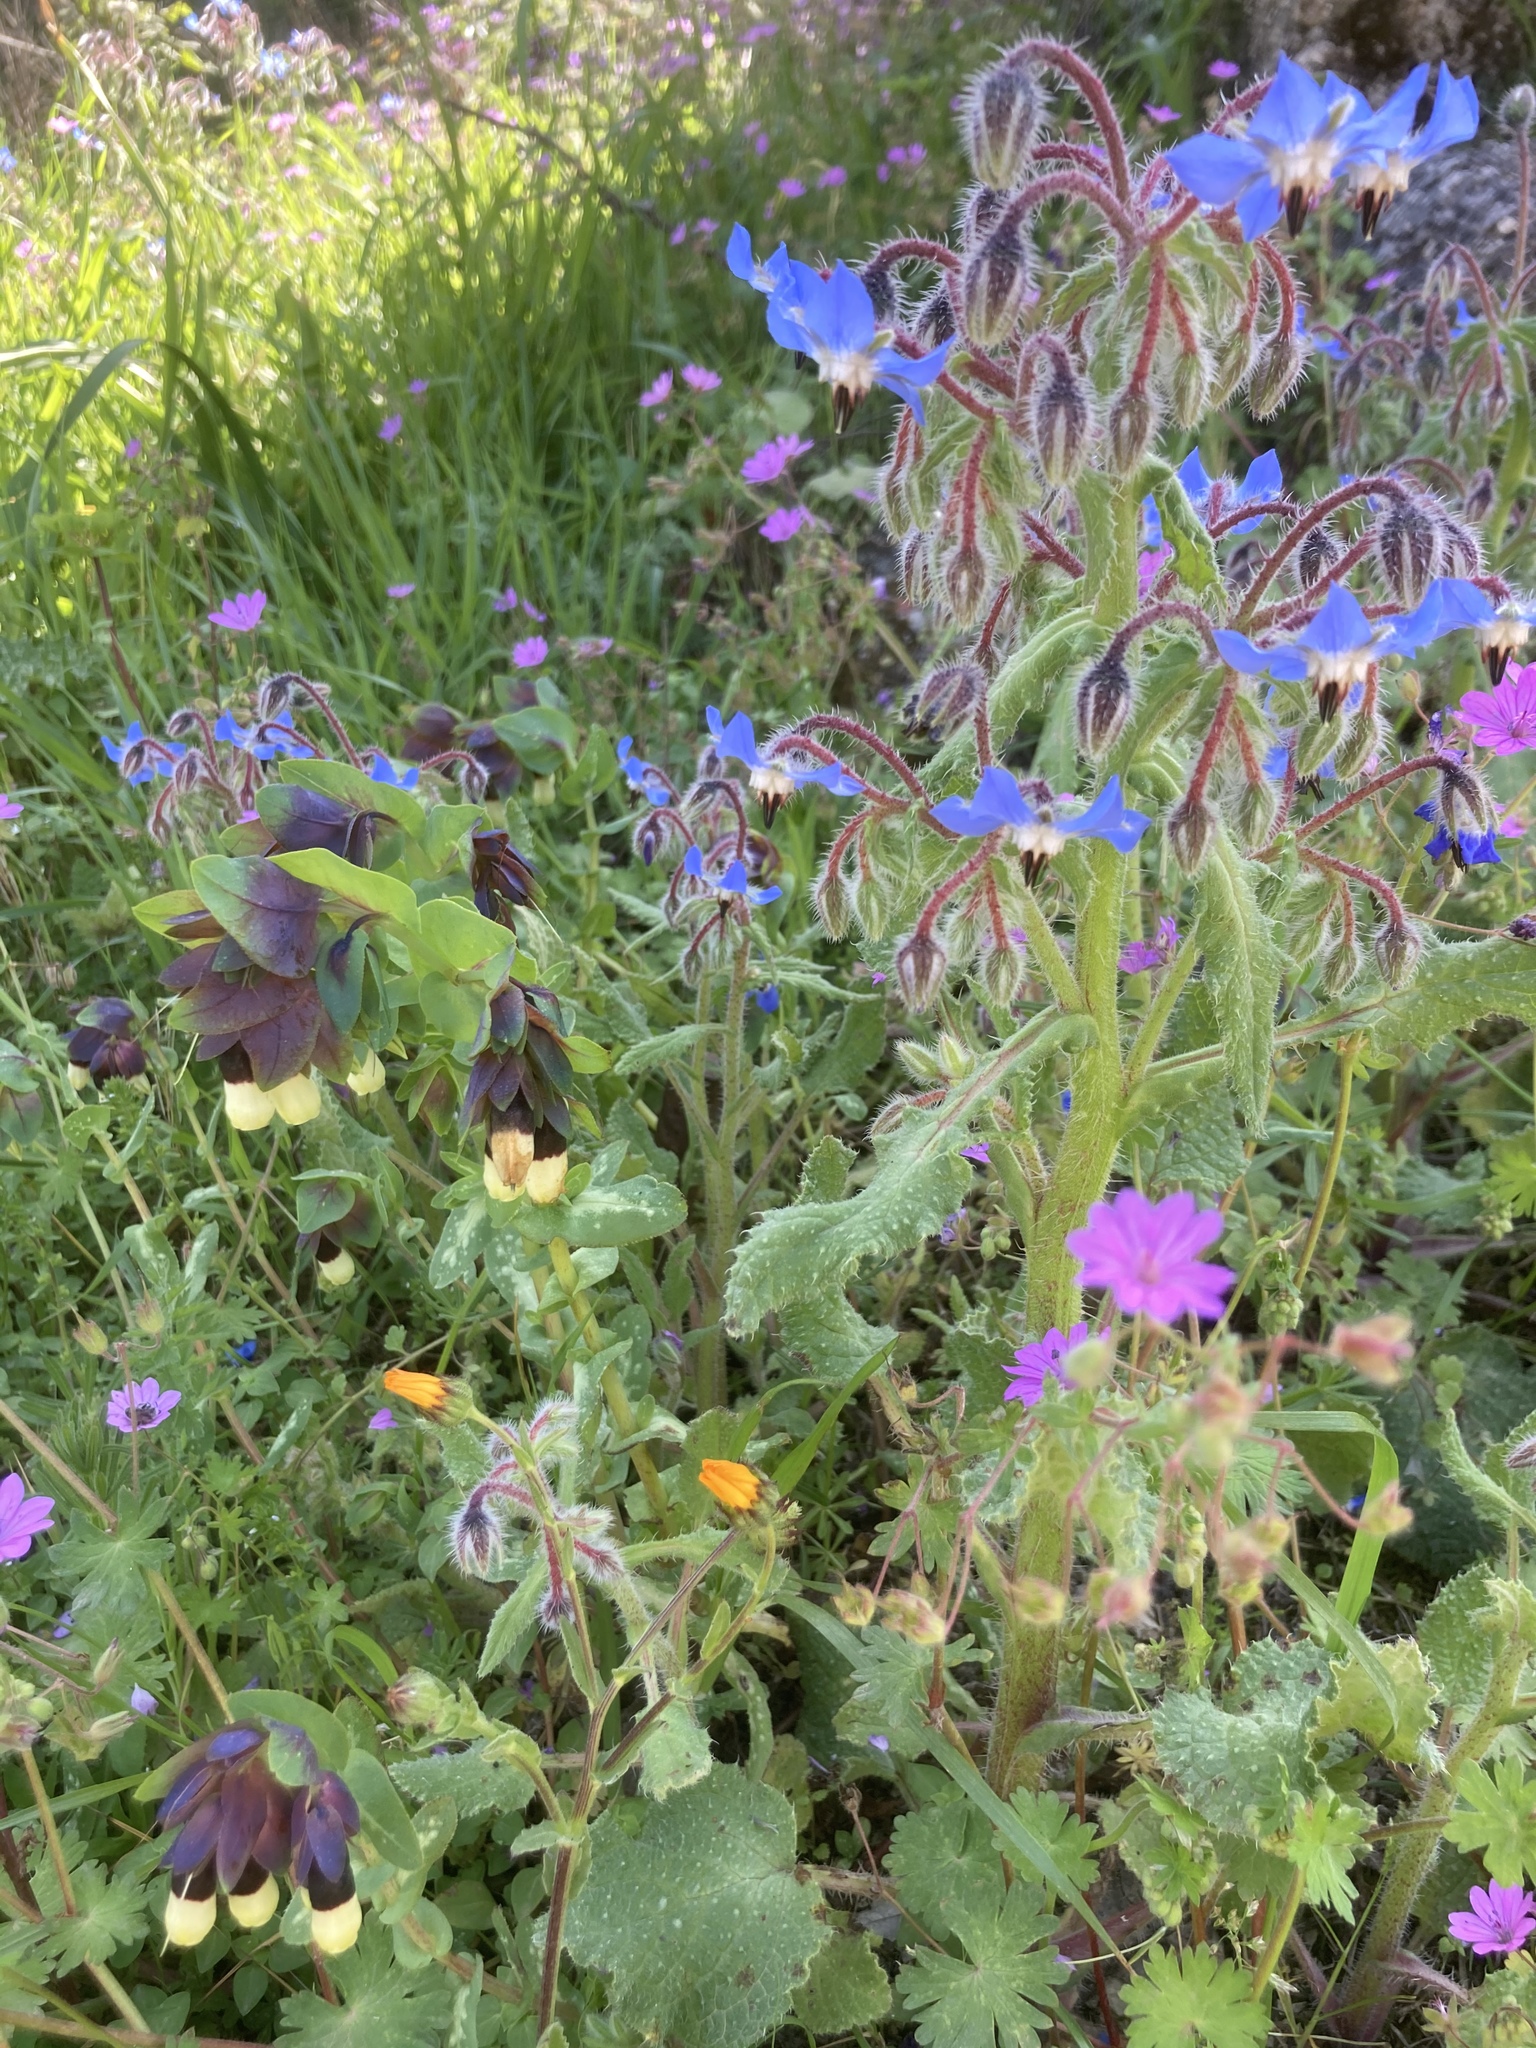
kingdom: Plantae
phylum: Tracheophyta
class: Magnoliopsida
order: Boraginales
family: Boraginaceae
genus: Borago
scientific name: Borago officinalis
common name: Borage
